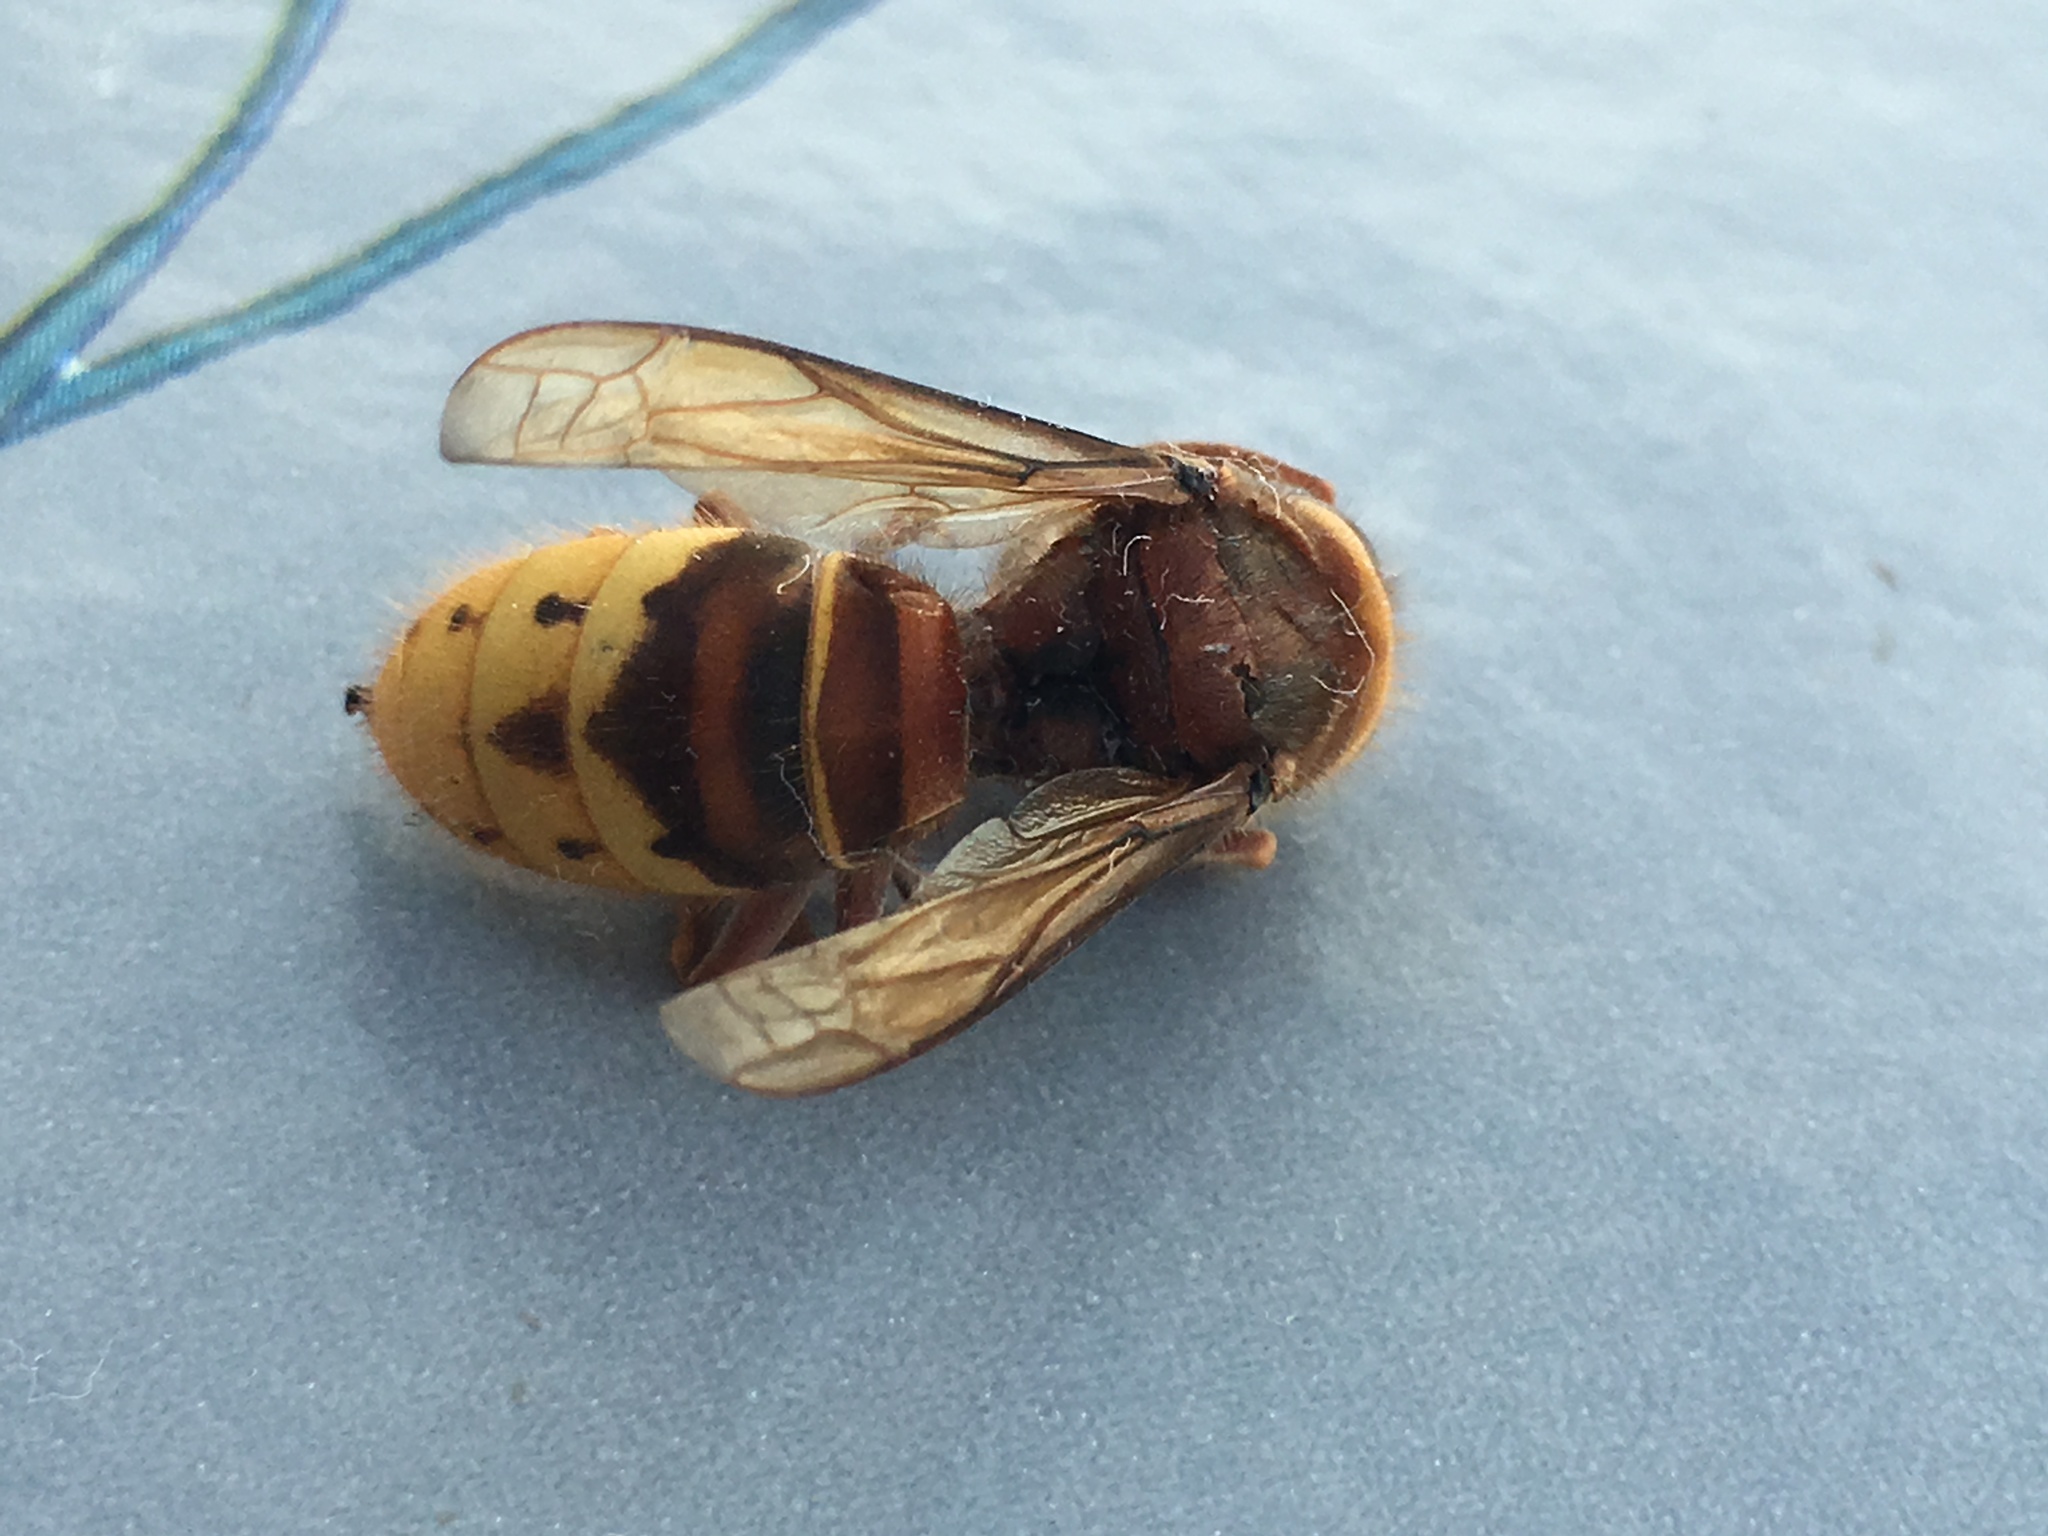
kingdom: Animalia
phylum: Arthropoda
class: Insecta
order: Hymenoptera
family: Vespidae
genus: Vespa
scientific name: Vespa crabro
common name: Hornet
